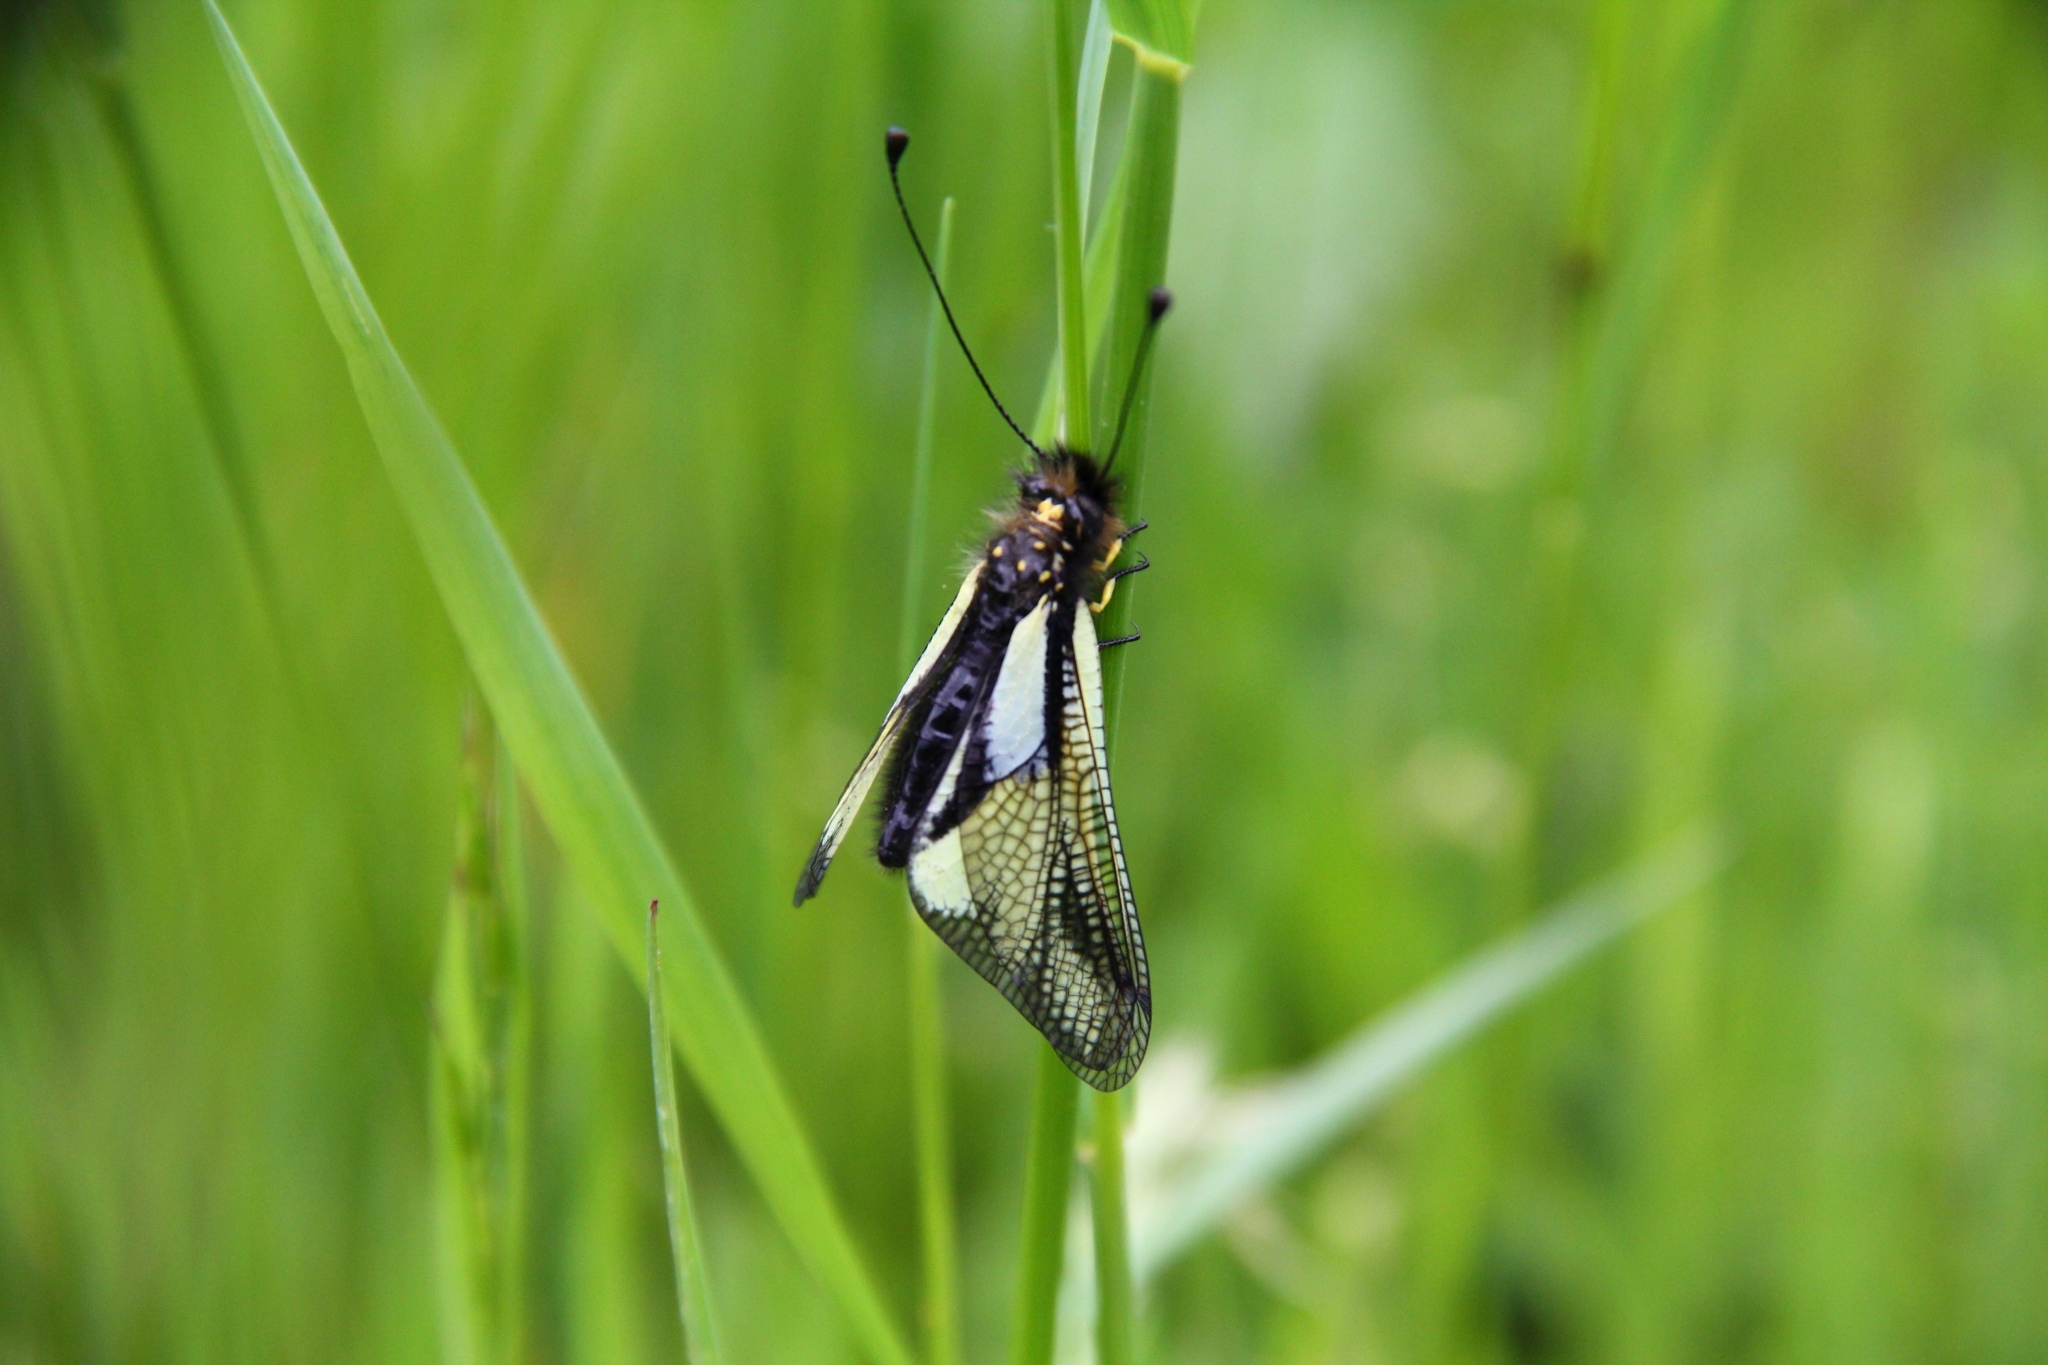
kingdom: Animalia
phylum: Arthropoda
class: Insecta
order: Neuroptera
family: Ascalaphidae
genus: Libelloides
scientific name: Libelloides coccajus
